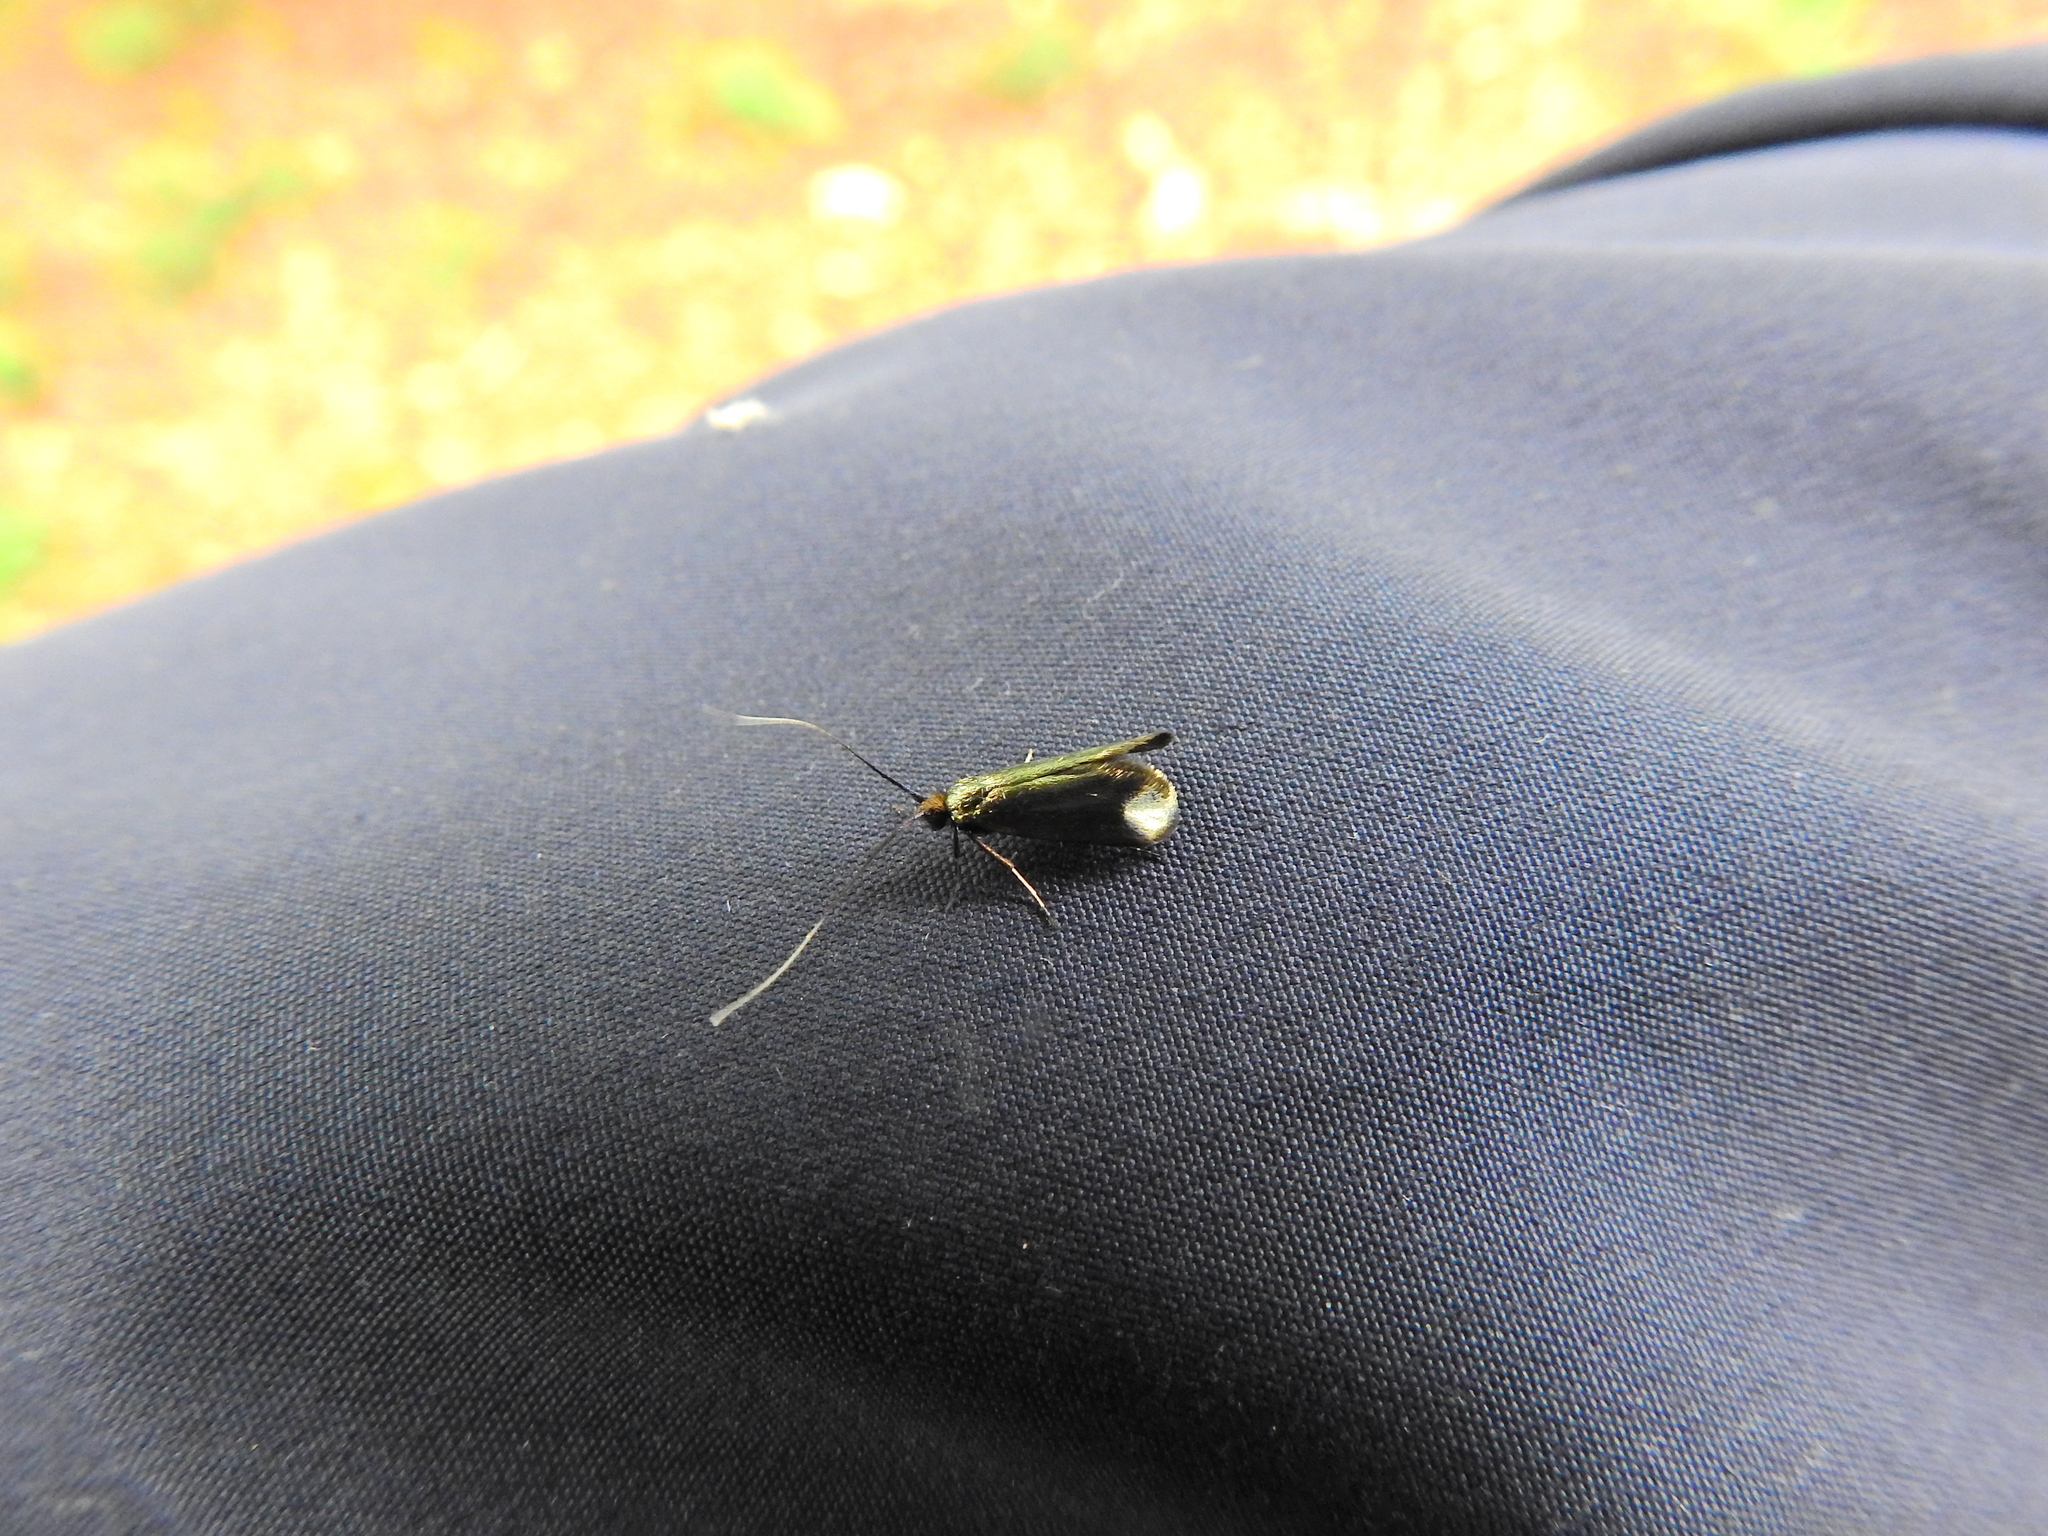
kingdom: Animalia
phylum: Arthropoda
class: Insecta
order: Lepidoptera
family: Adelidae
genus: Adela
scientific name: Adela viridella
